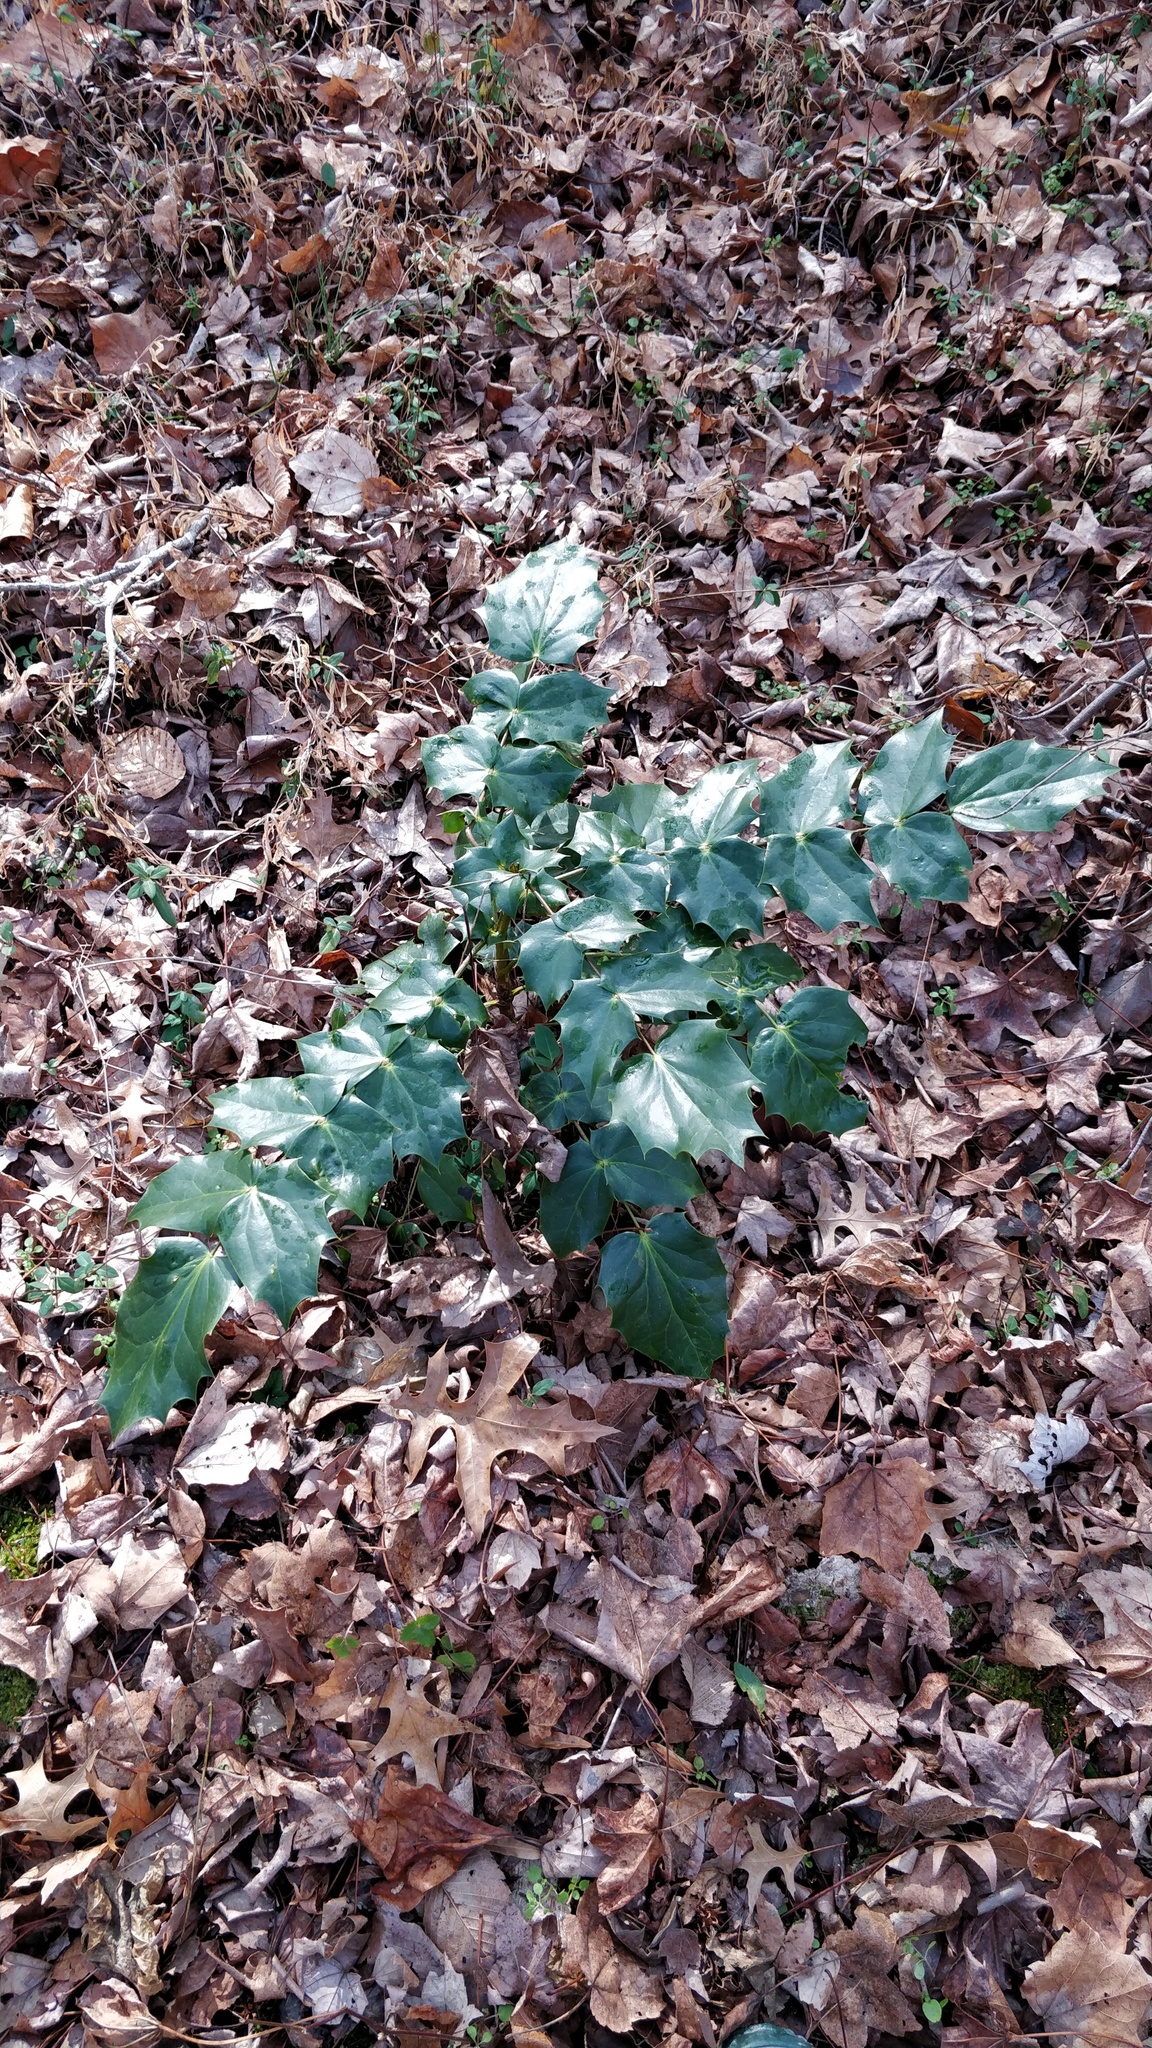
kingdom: Plantae
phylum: Tracheophyta
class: Magnoliopsida
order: Ranunculales
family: Berberidaceae
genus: Mahonia
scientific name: Mahonia bealei
